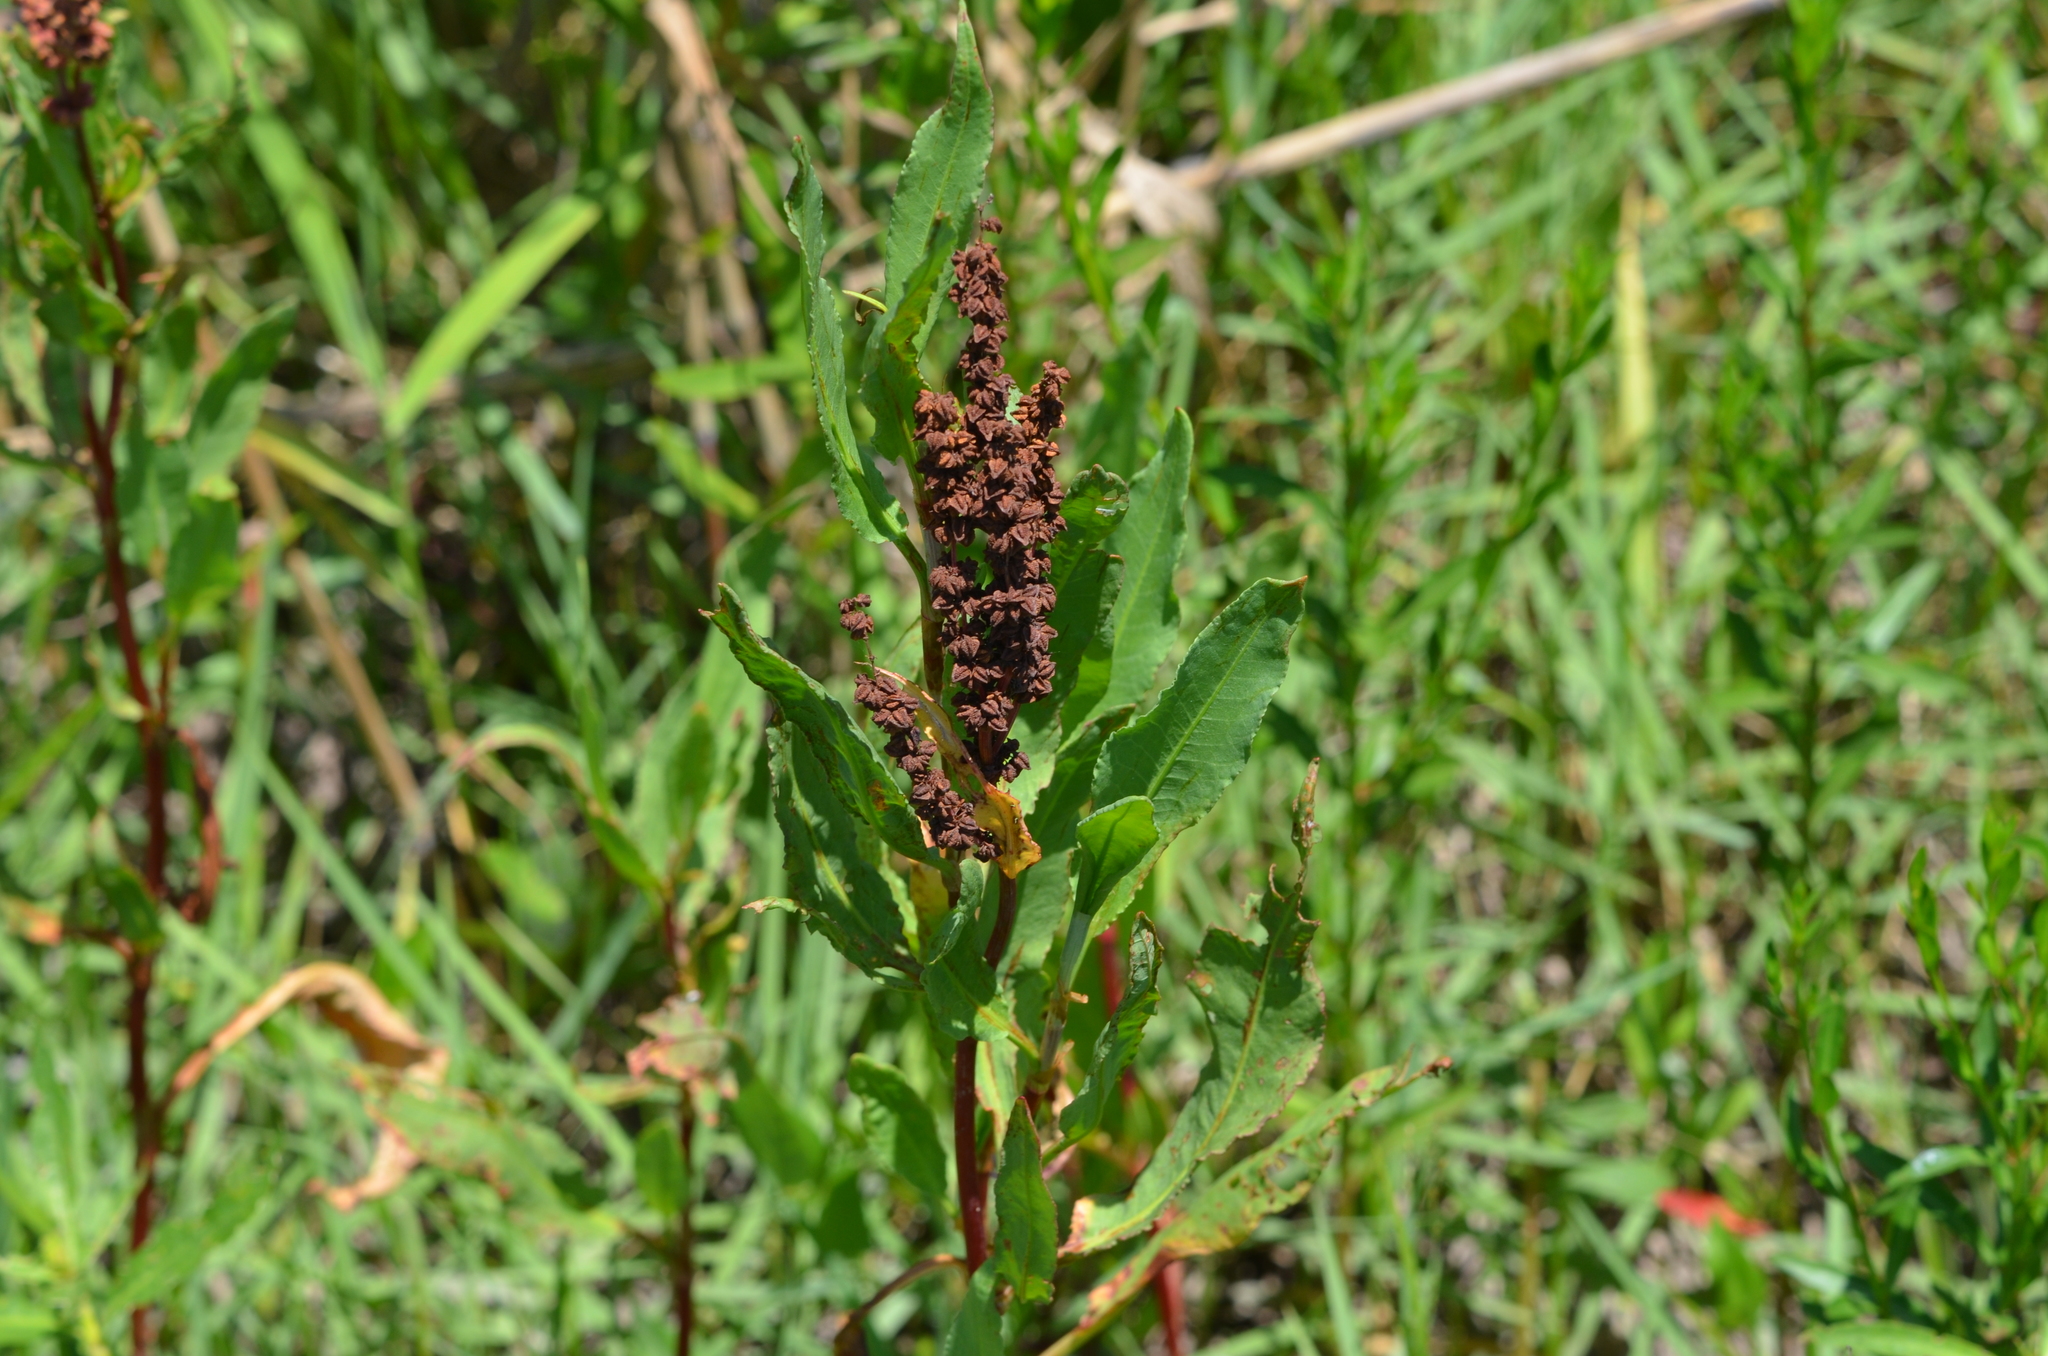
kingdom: Plantae
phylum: Tracheophyta
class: Magnoliopsida
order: Caryophyllales
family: Polygonaceae
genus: Rumex
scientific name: Rumex crispus
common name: Curled dock
